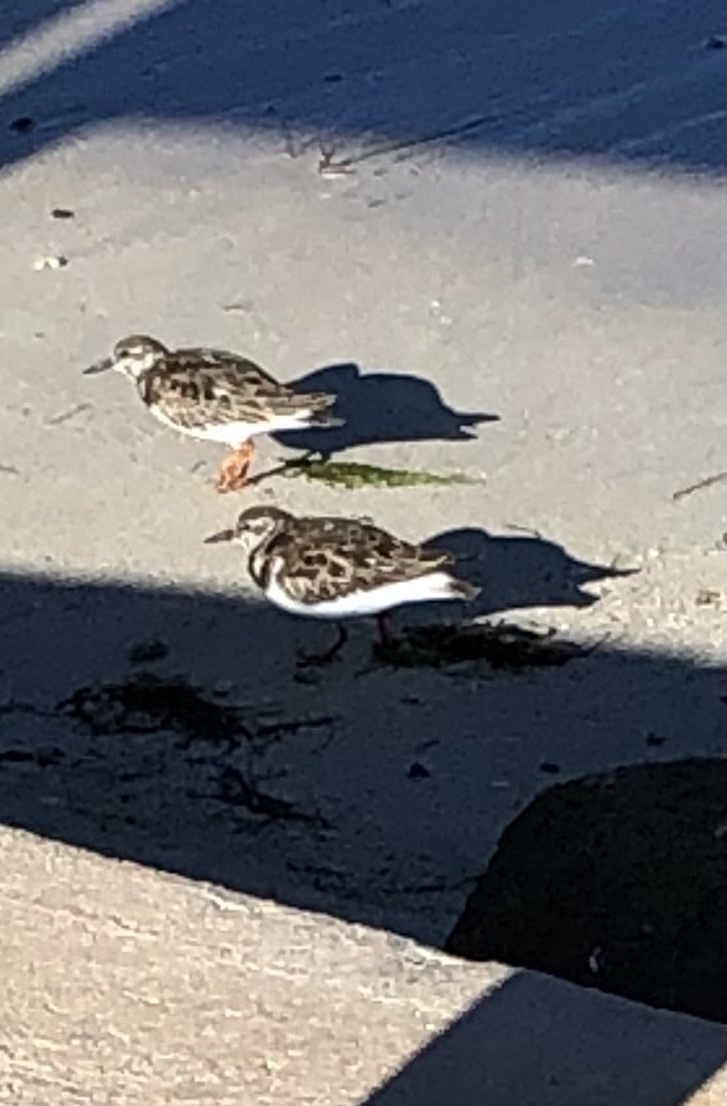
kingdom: Animalia
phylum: Chordata
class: Aves
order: Charadriiformes
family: Scolopacidae
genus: Arenaria
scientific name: Arenaria interpres
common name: Ruddy turnstone
